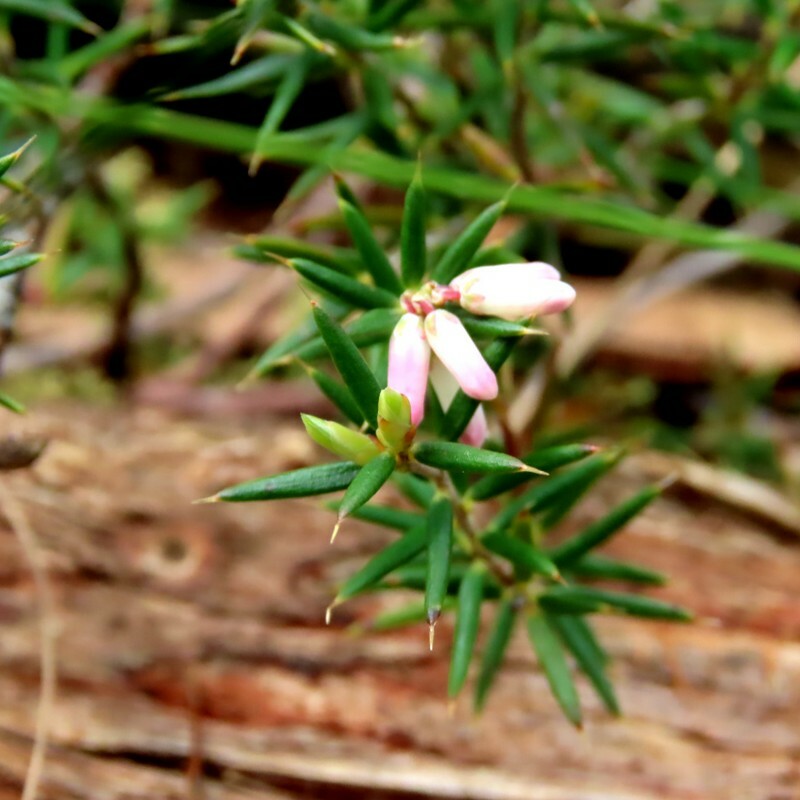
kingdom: Plantae
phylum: Tracheophyta
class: Magnoliopsida
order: Ericales
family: Ericaceae
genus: Lissanthe
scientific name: Lissanthe strigosa
